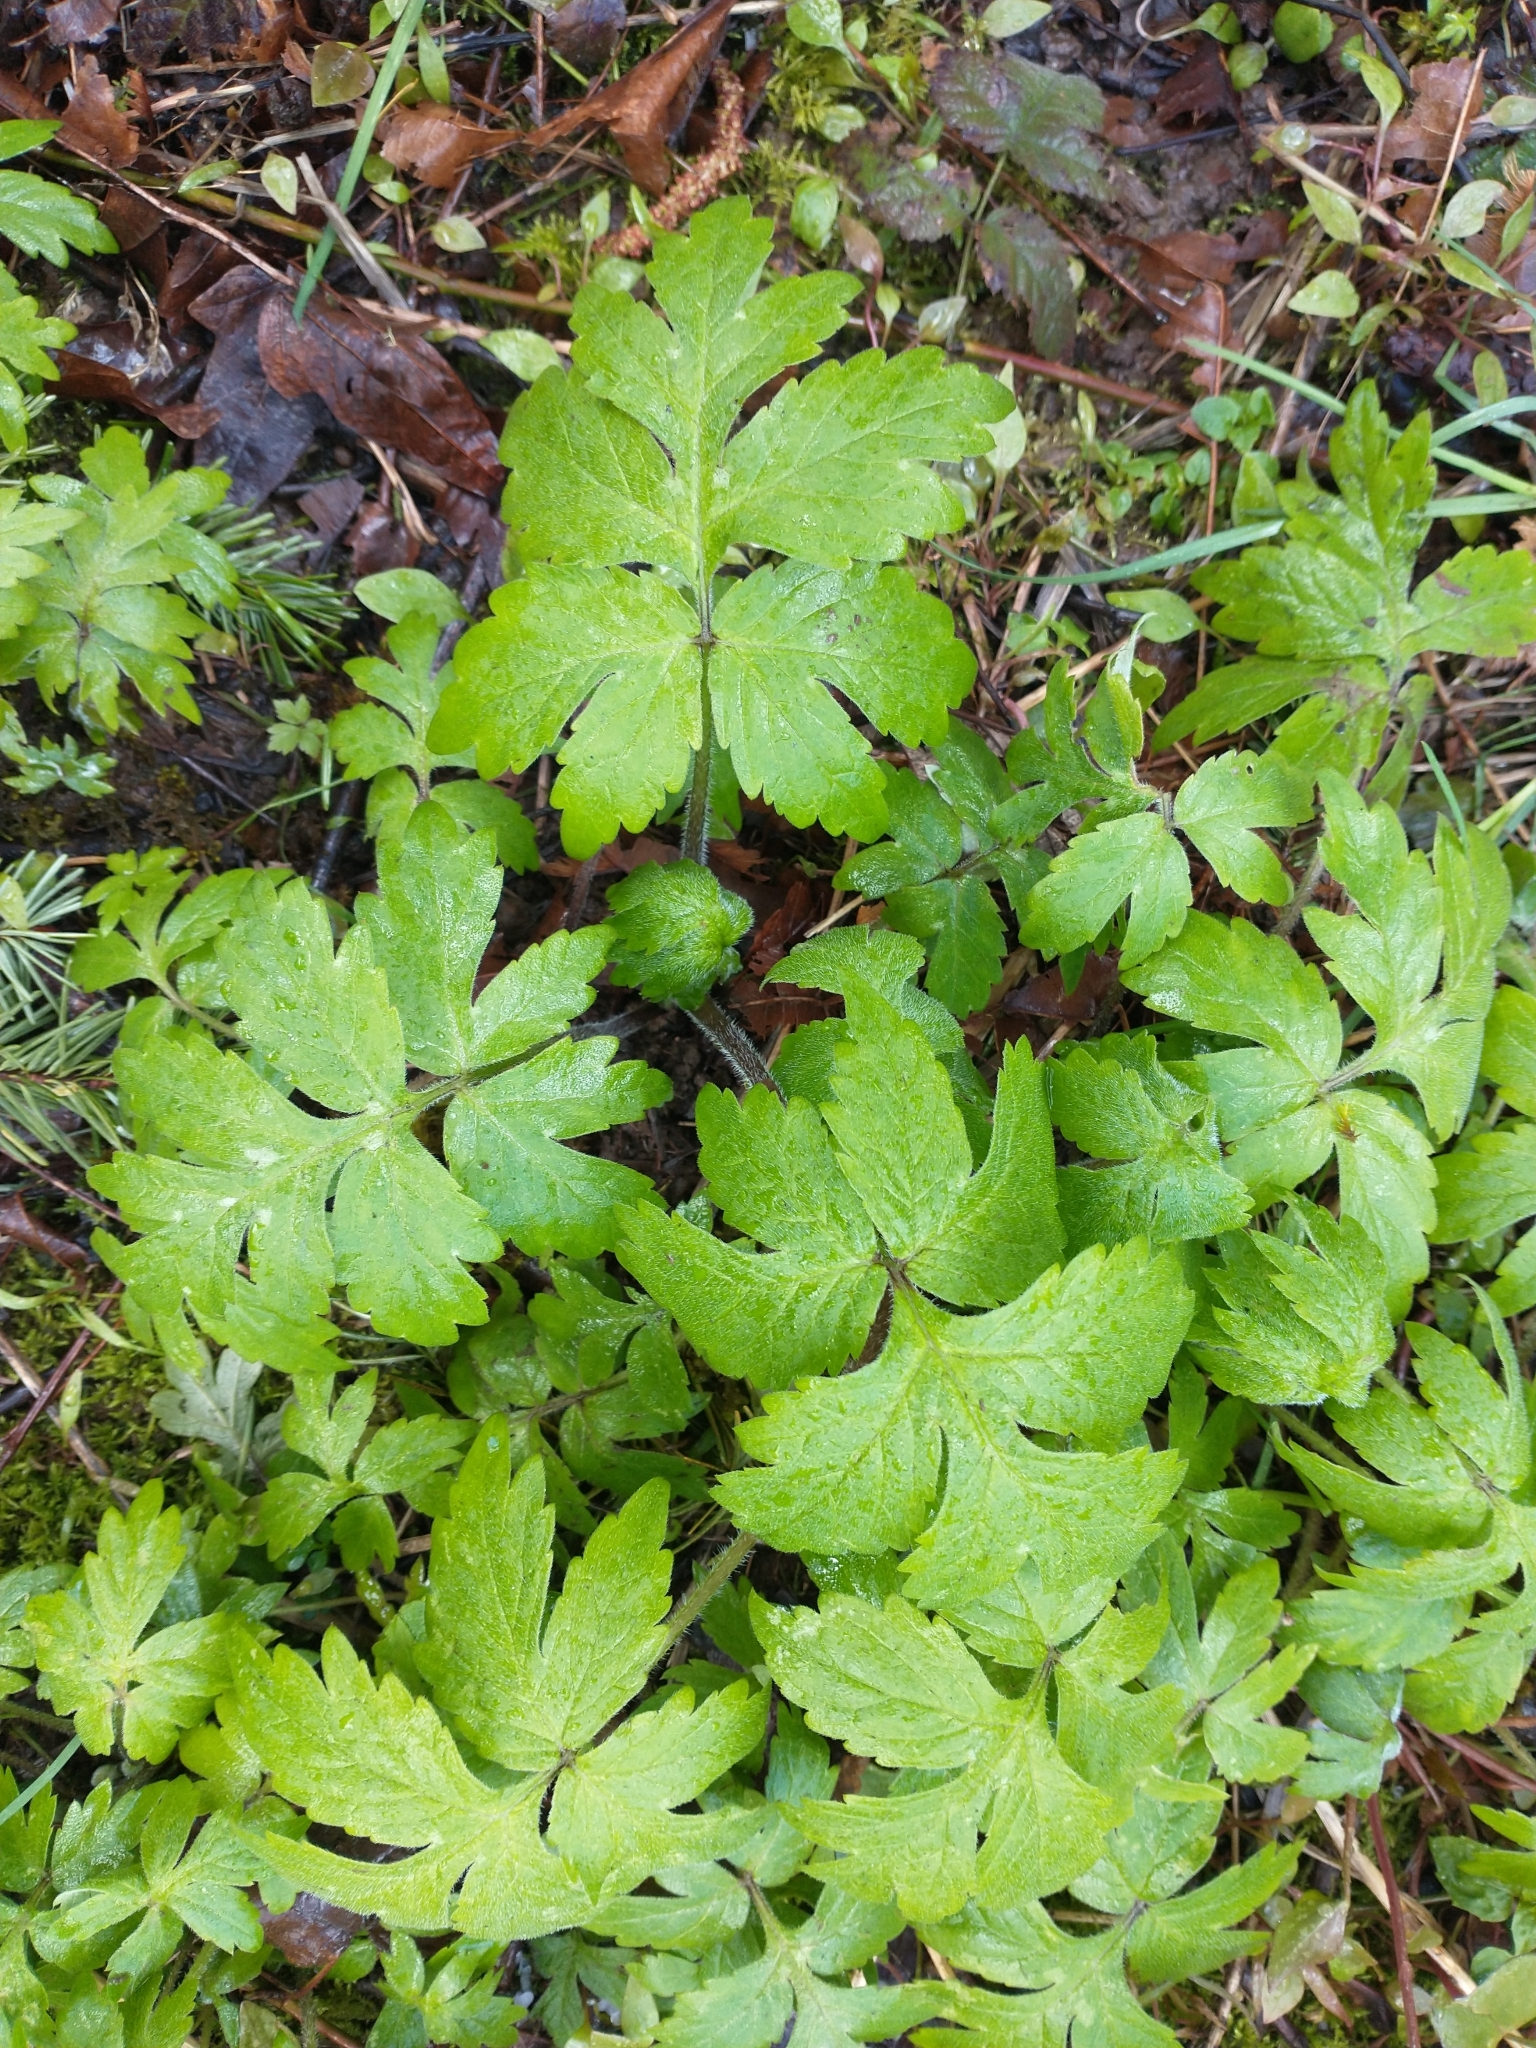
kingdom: Plantae
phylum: Tracheophyta
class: Magnoliopsida
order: Boraginales
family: Hydrophyllaceae
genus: Hydrophyllum
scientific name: Hydrophyllum tenuipes
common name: Pacific waterleaf
